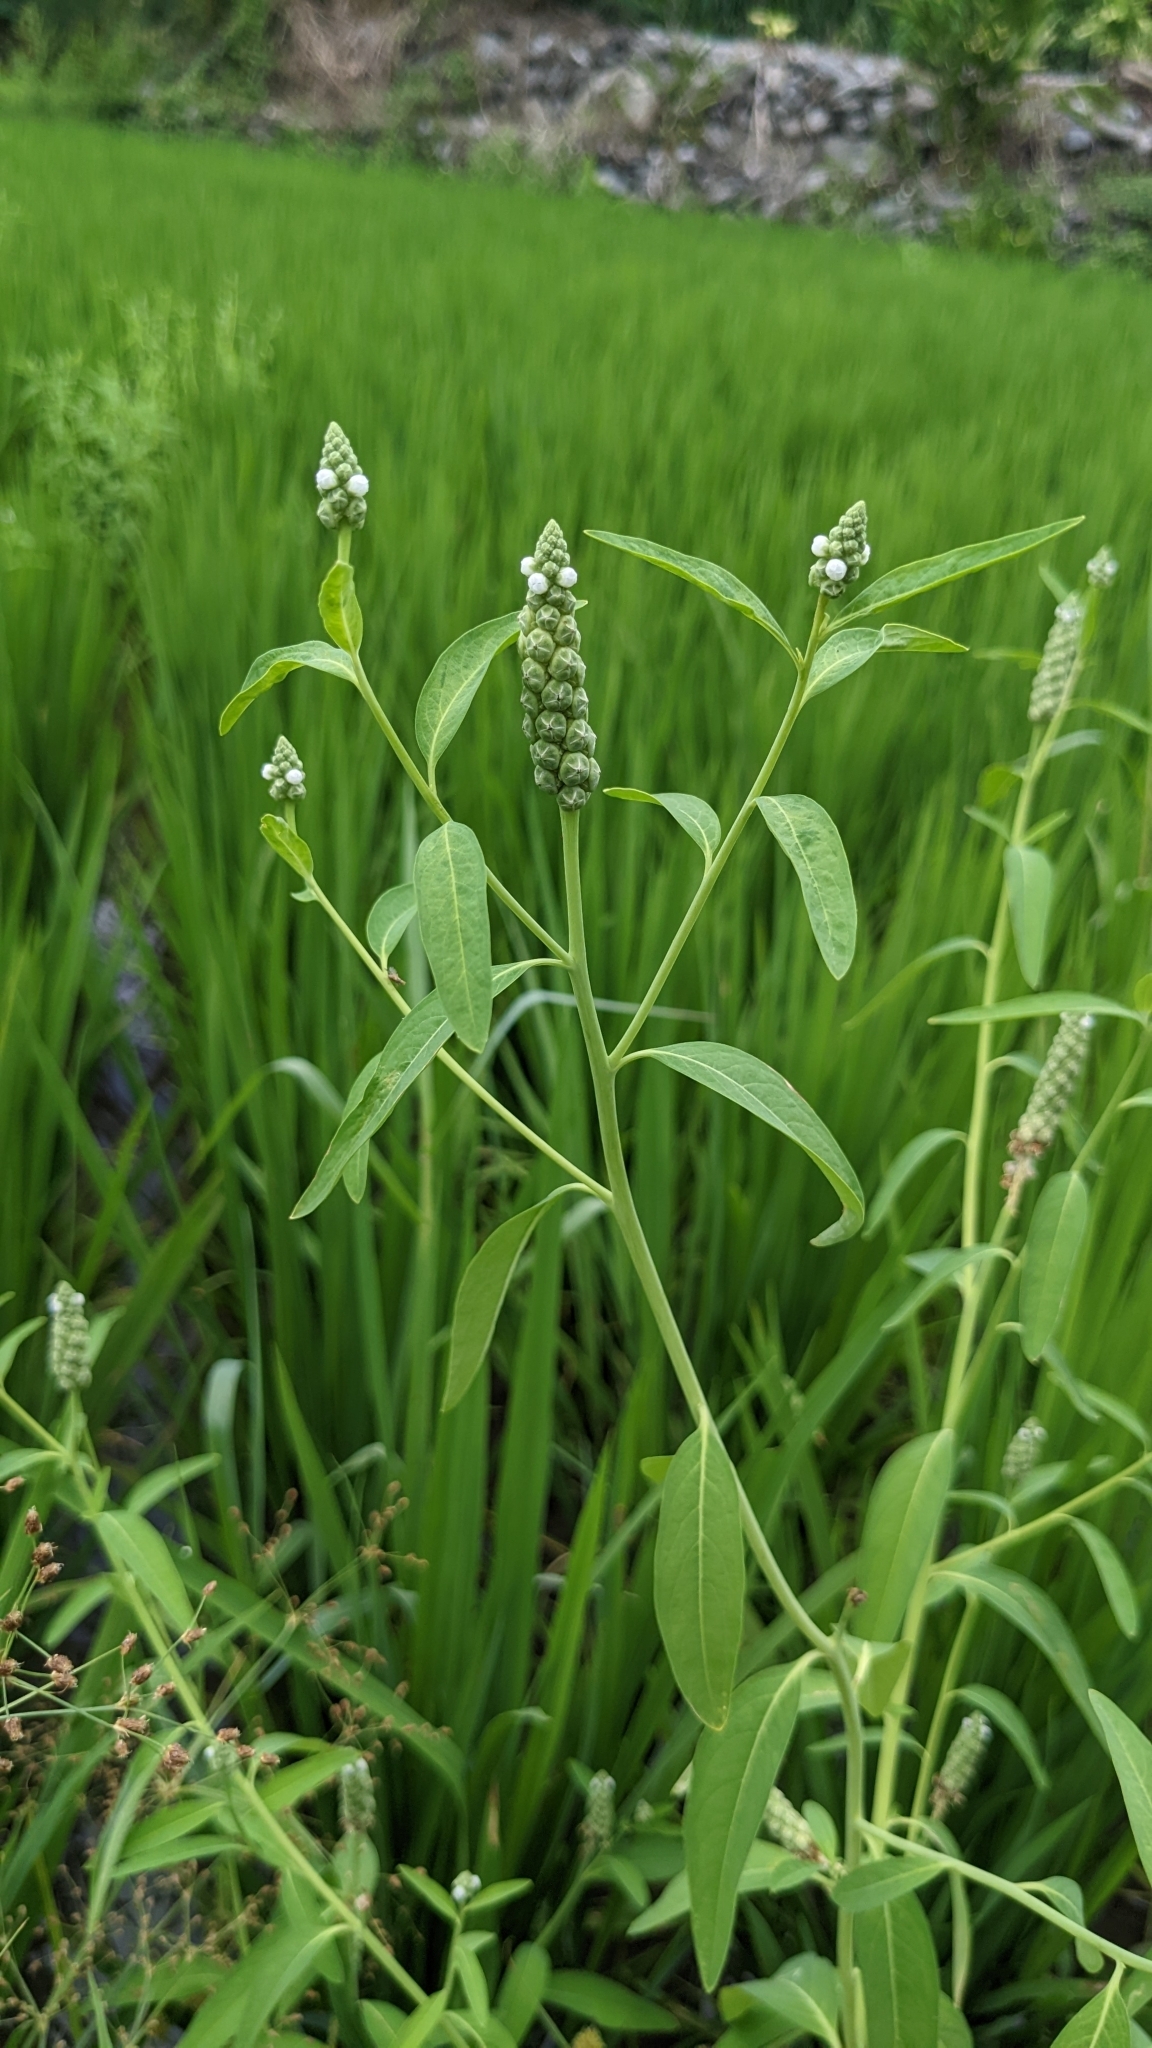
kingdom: Plantae
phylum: Tracheophyta
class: Magnoliopsida
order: Solanales
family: Sphenocleaceae
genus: Sphenoclea
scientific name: Sphenoclea zeylanica
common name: Chickenspike
